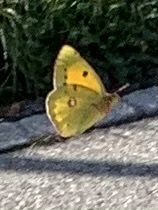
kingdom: Animalia
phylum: Arthropoda
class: Insecta
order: Lepidoptera
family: Pieridae
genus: Colias
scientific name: Colias croceus
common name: Clouded yellow
